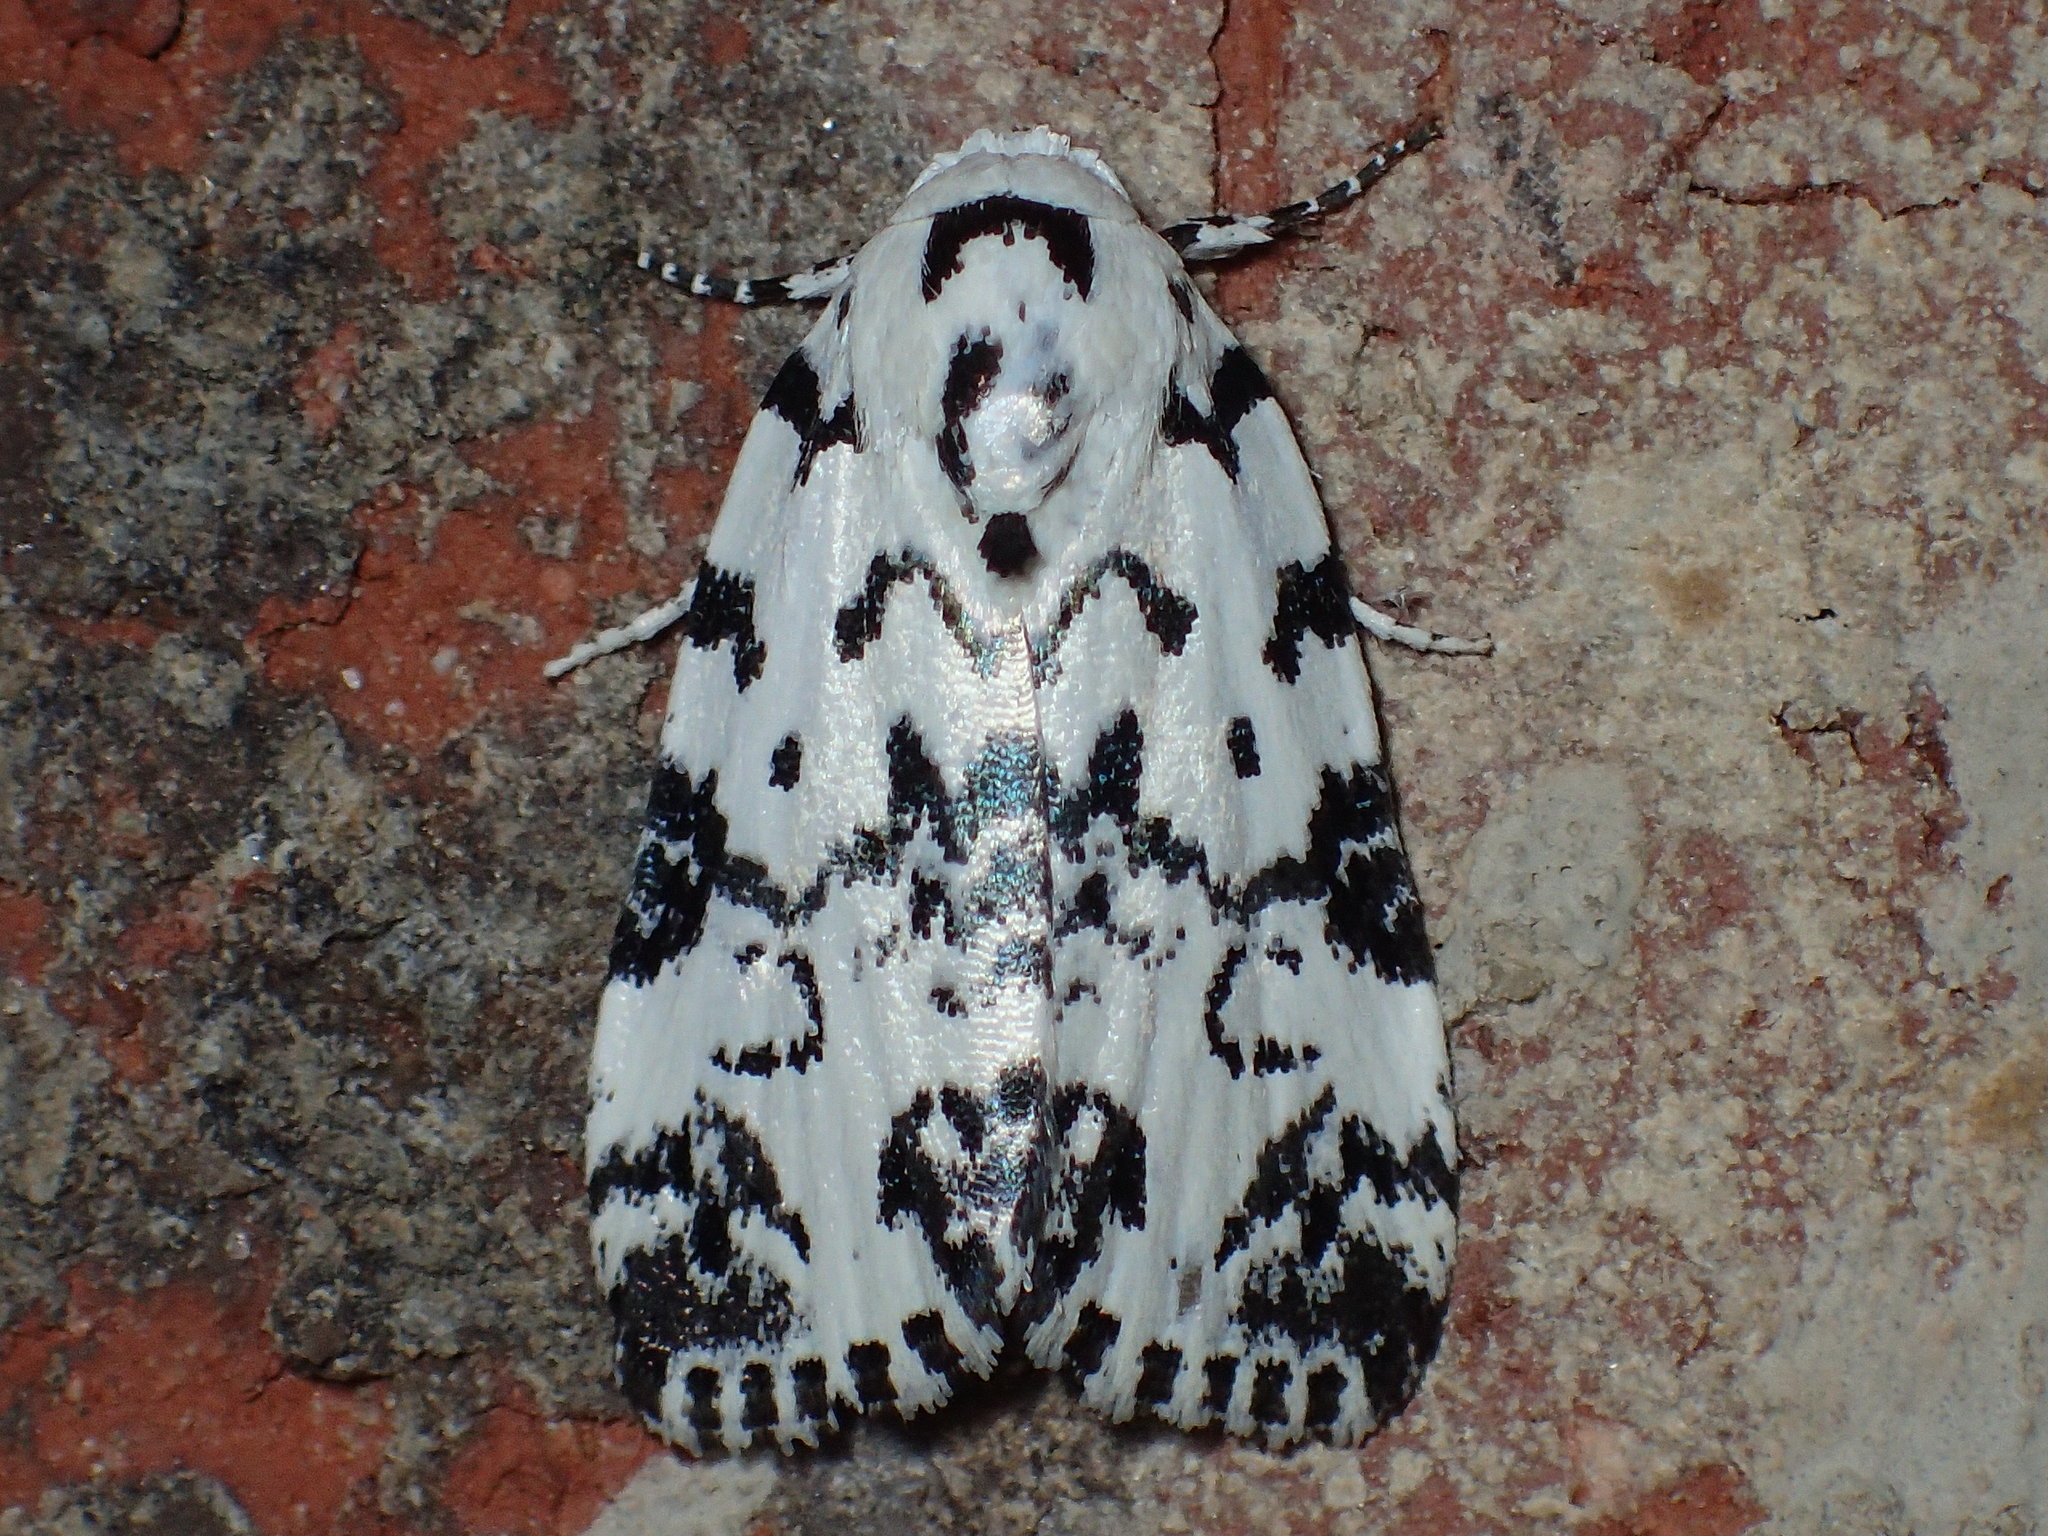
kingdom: Animalia
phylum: Arthropoda
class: Insecta
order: Lepidoptera
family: Noctuidae
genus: Polygrammate
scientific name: Polygrammate hebraeicum
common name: Hebrew moth
